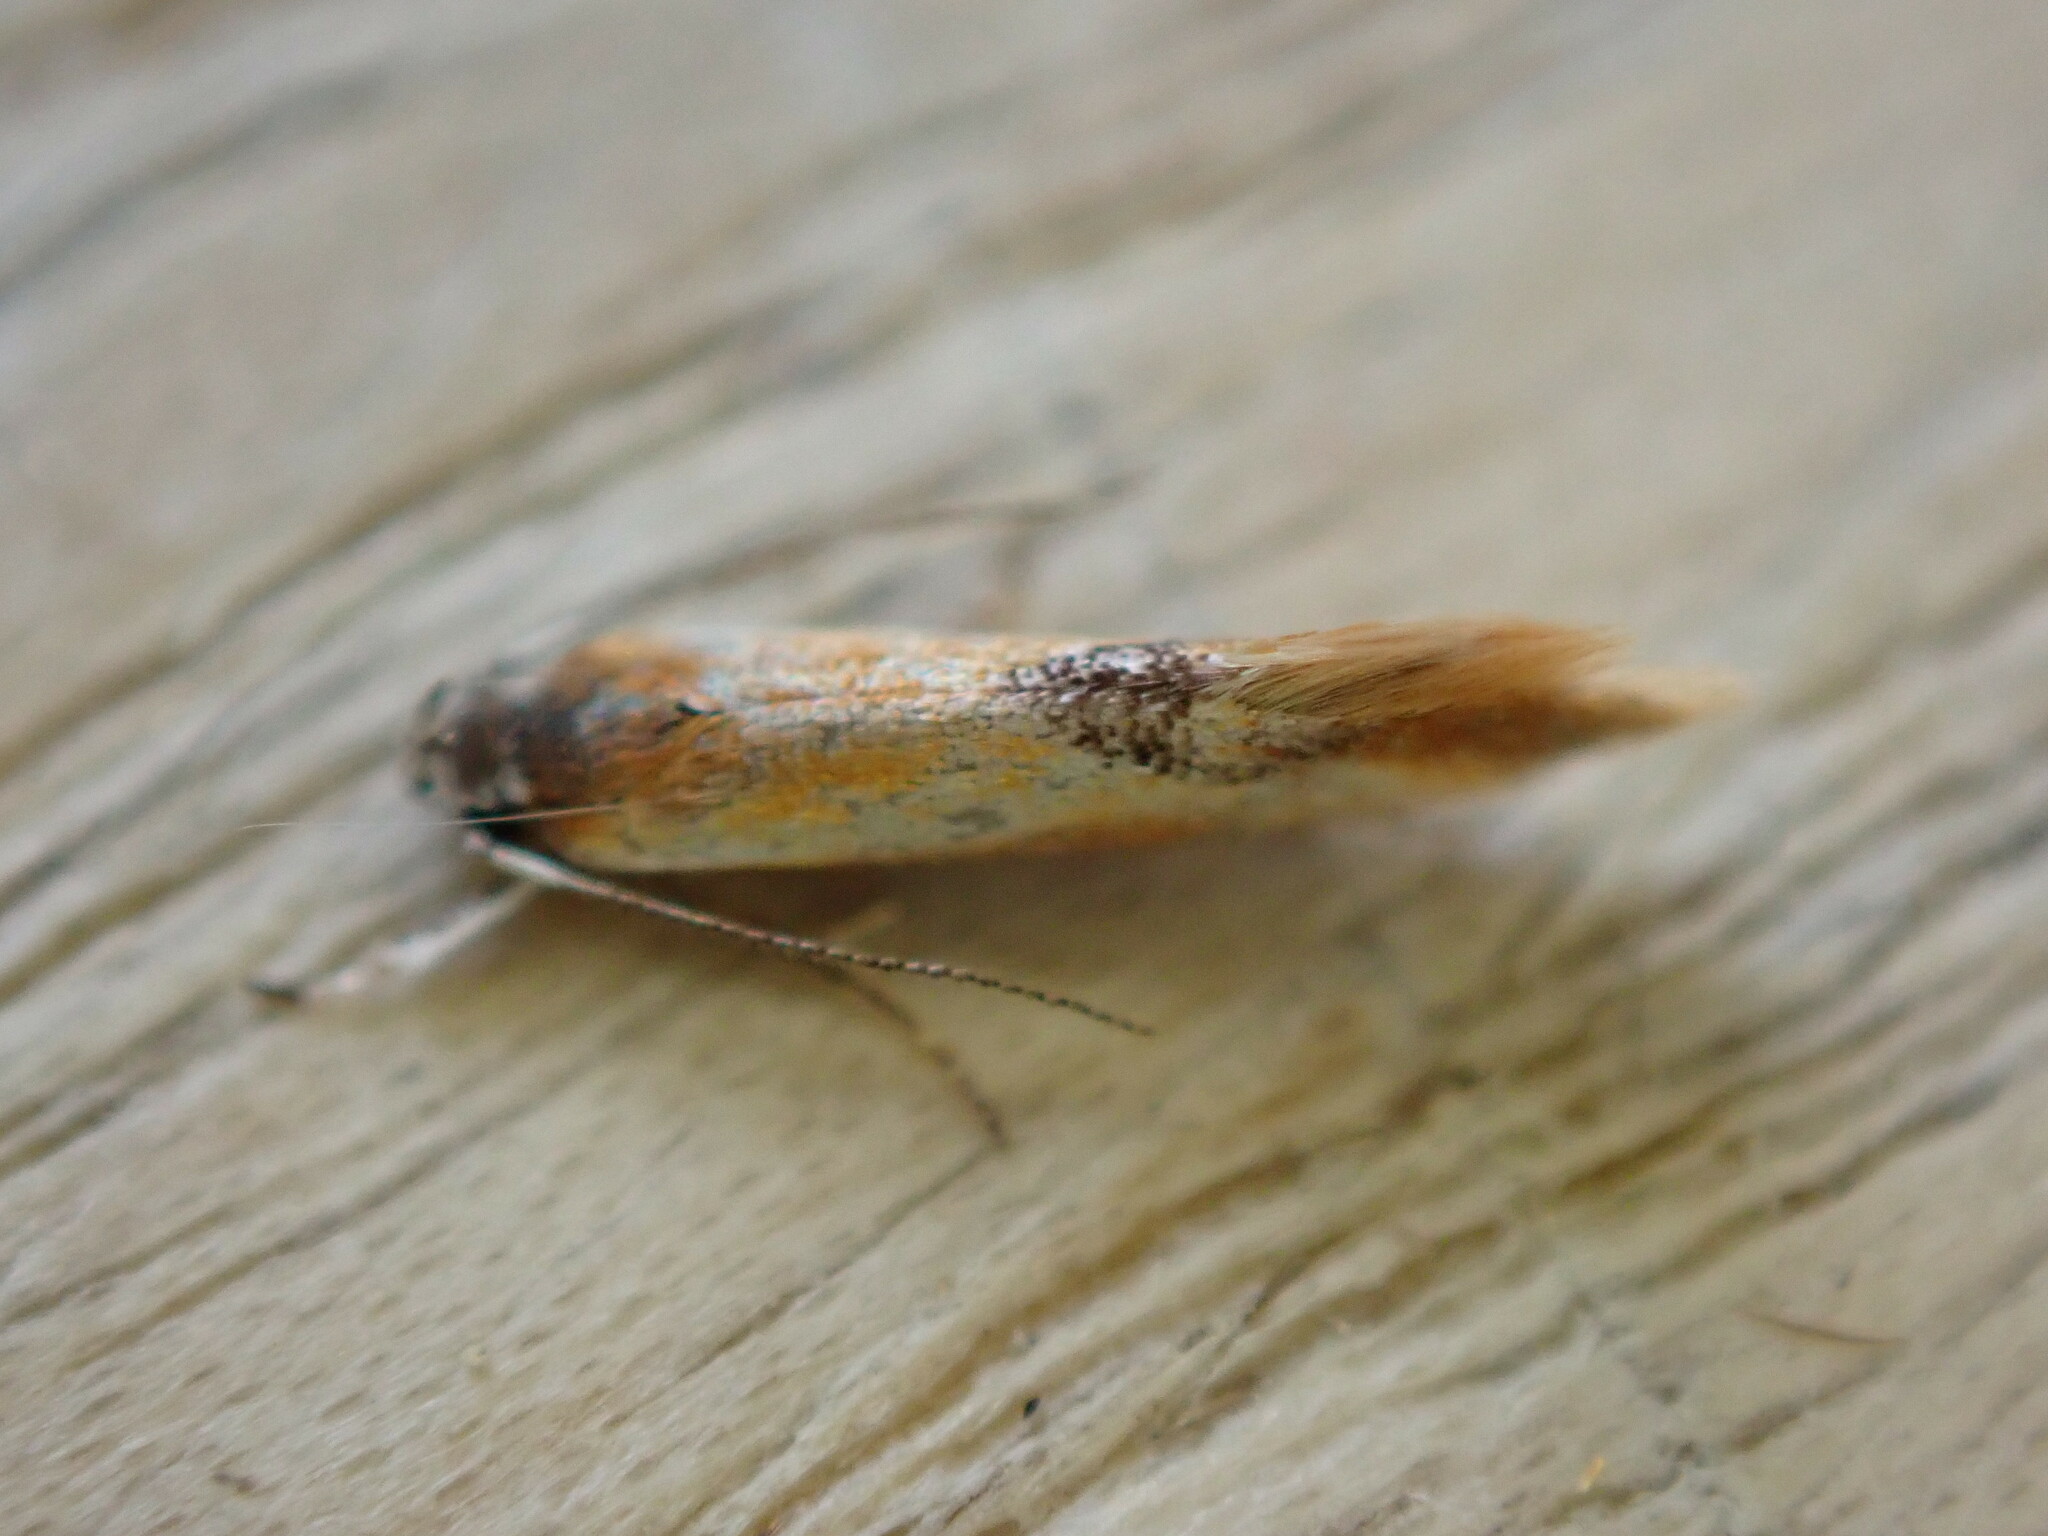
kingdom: Animalia
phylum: Arthropoda
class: Insecta
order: Lepidoptera
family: Oecophoridae
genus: Batia
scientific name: Batia lunaris
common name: Moth
